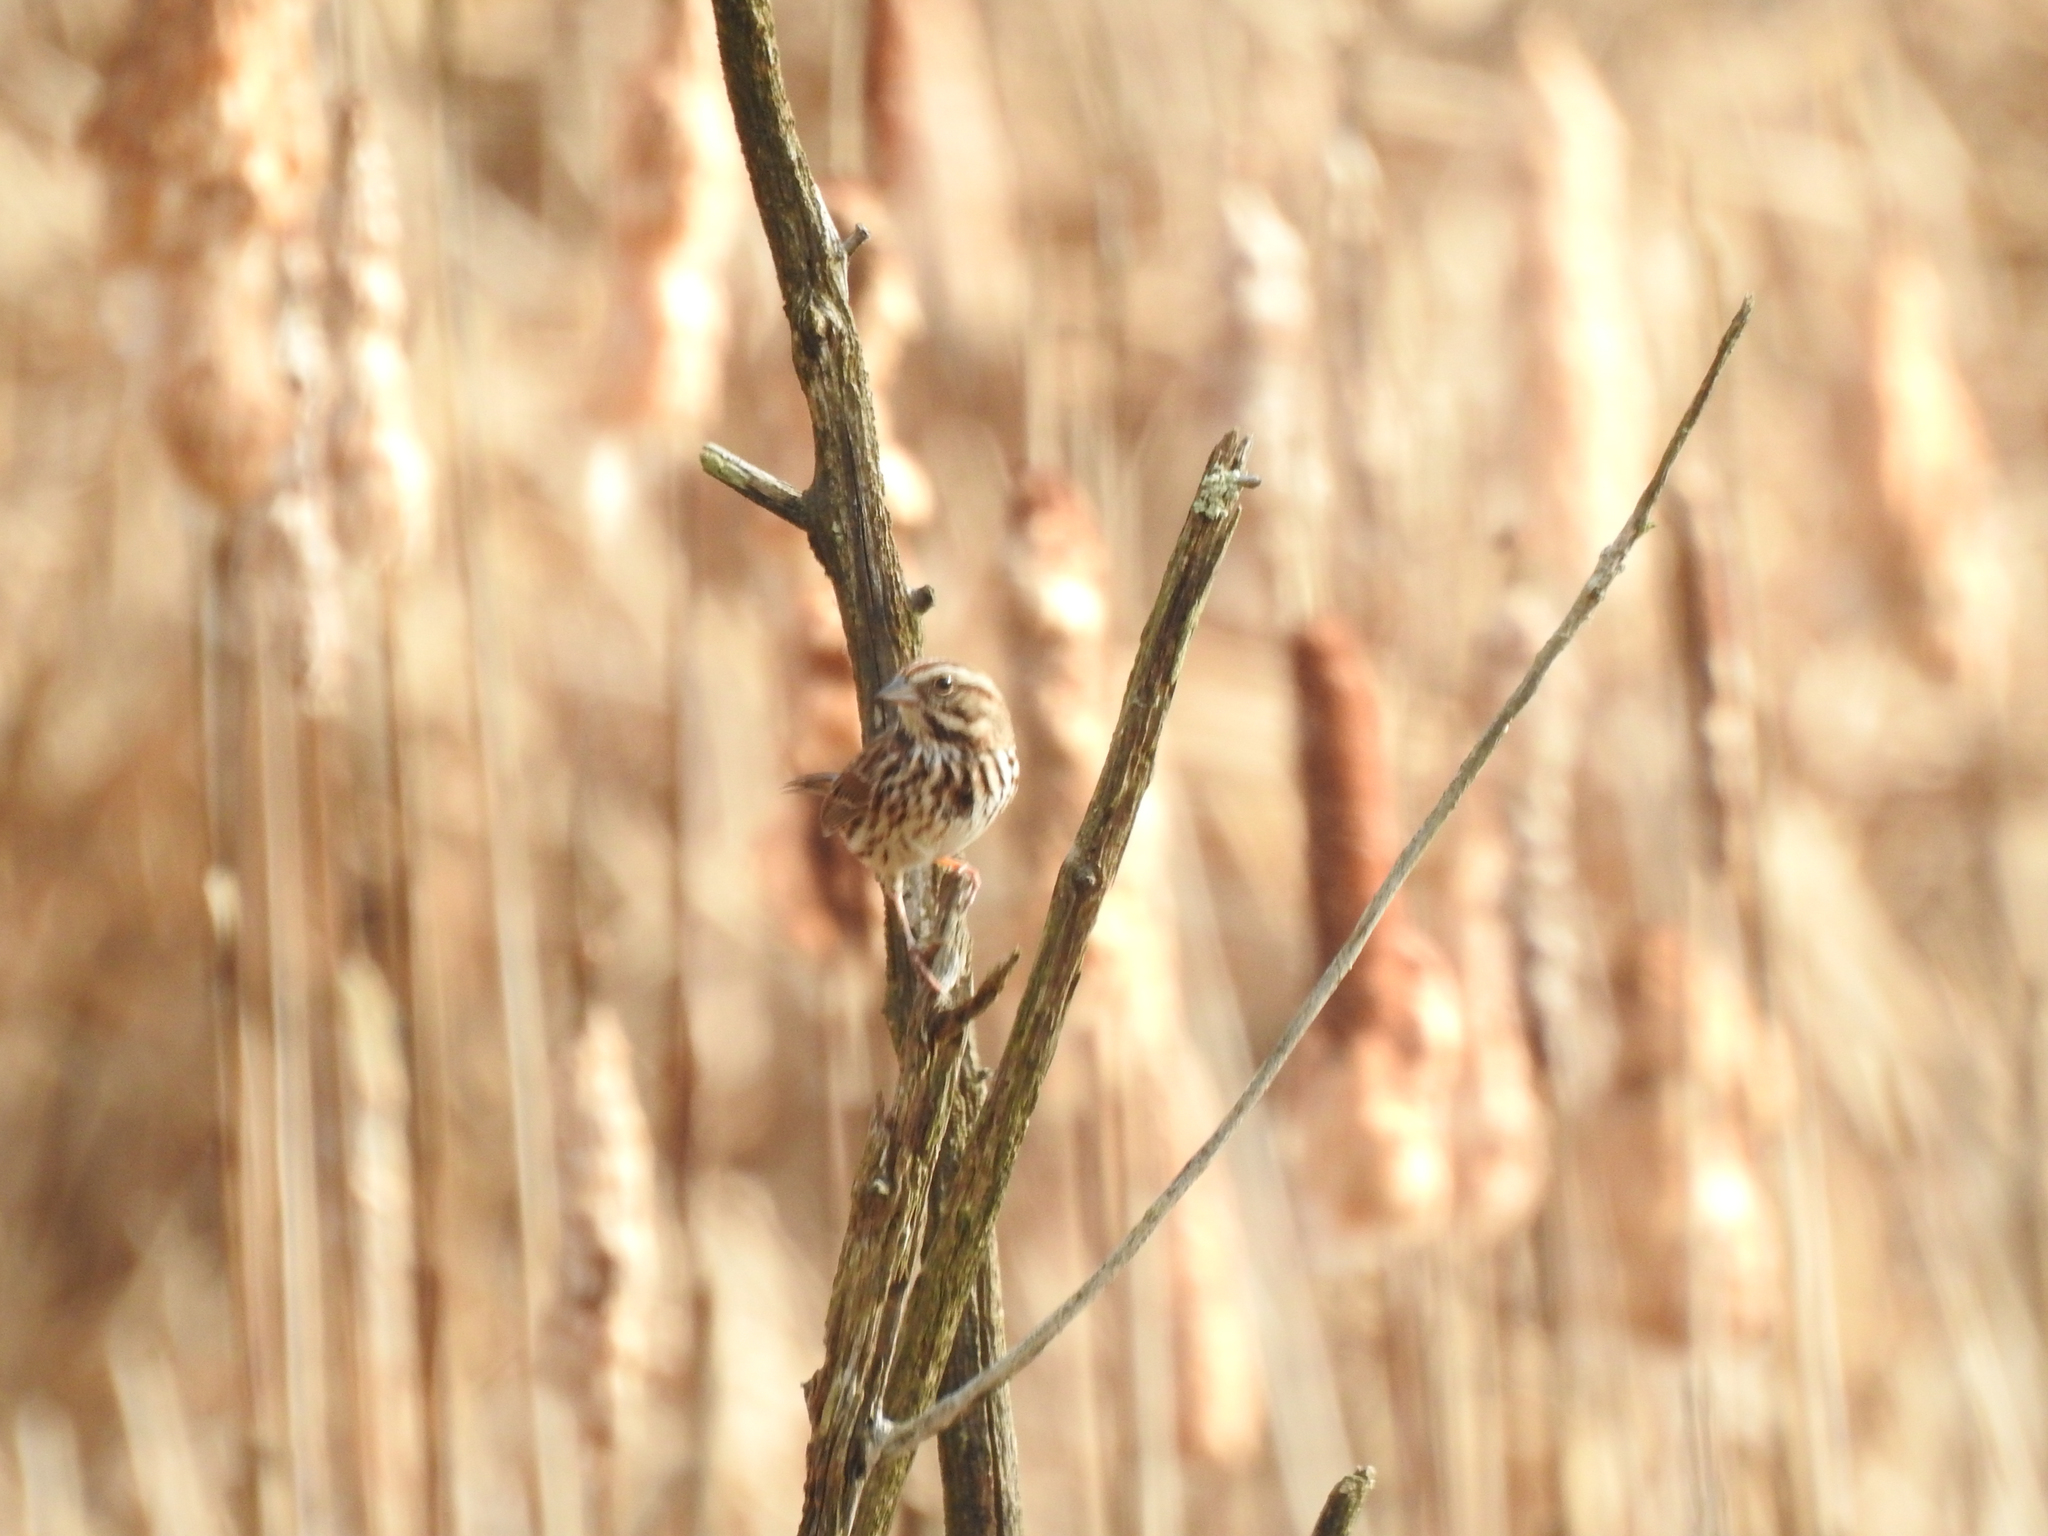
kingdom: Animalia
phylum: Chordata
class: Aves
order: Passeriformes
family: Passerellidae
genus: Melospiza
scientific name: Melospiza melodia
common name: Song sparrow
